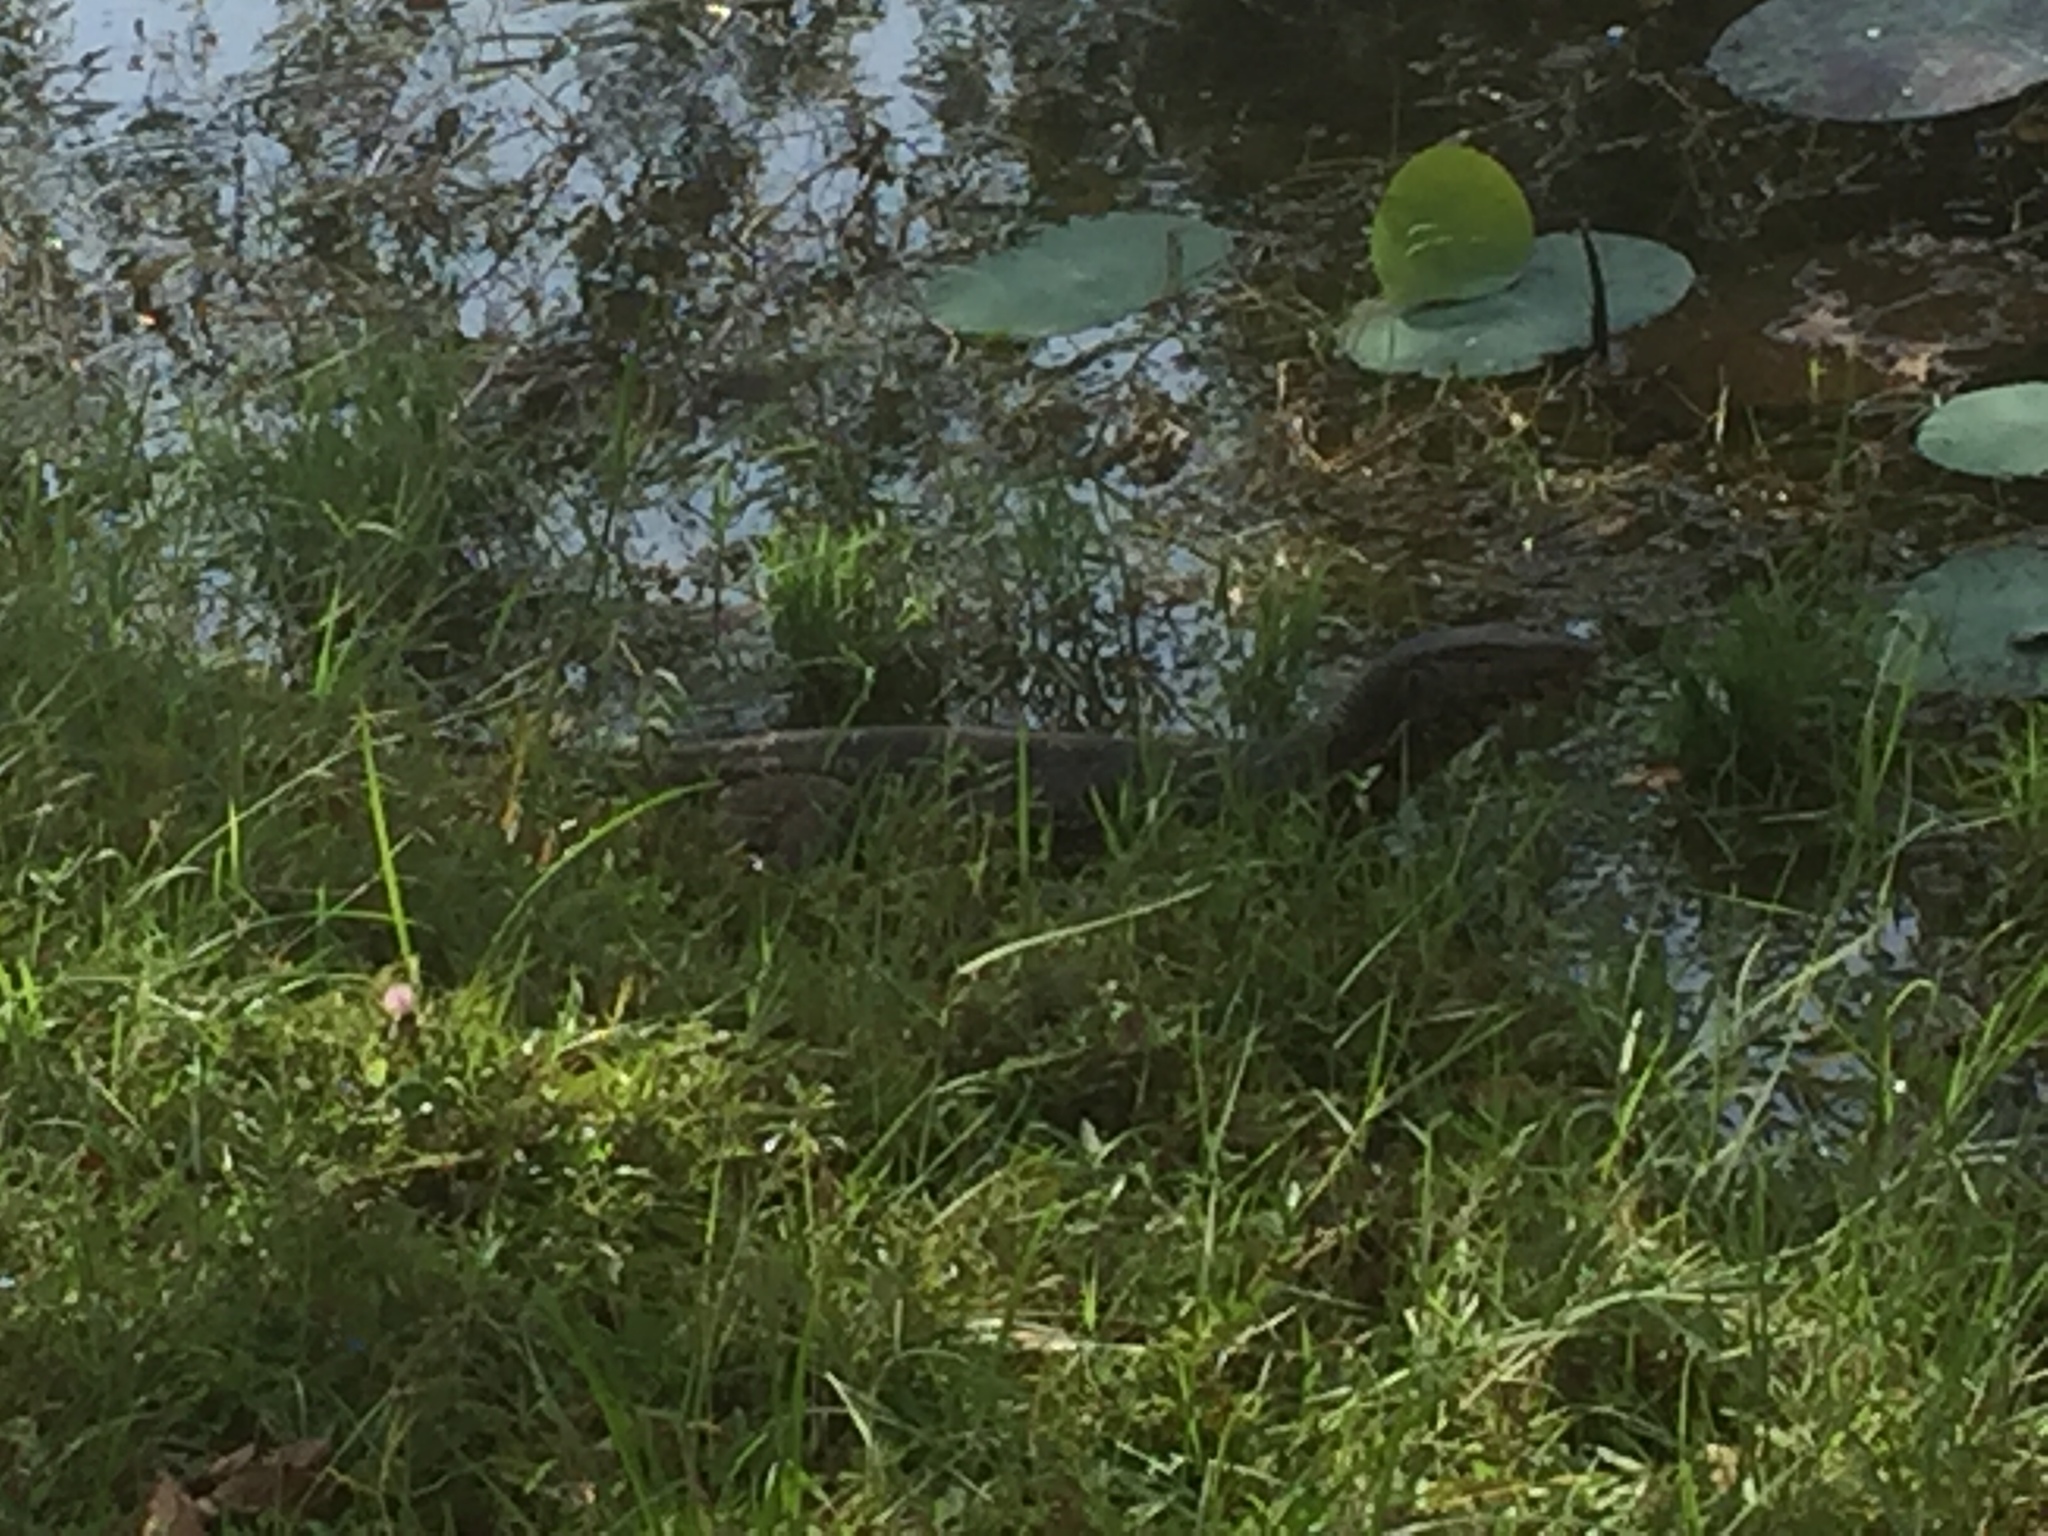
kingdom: Animalia
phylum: Chordata
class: Squamata
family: Varanidae
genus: Varanus
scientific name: Varanus salvator
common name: Common water monitor
